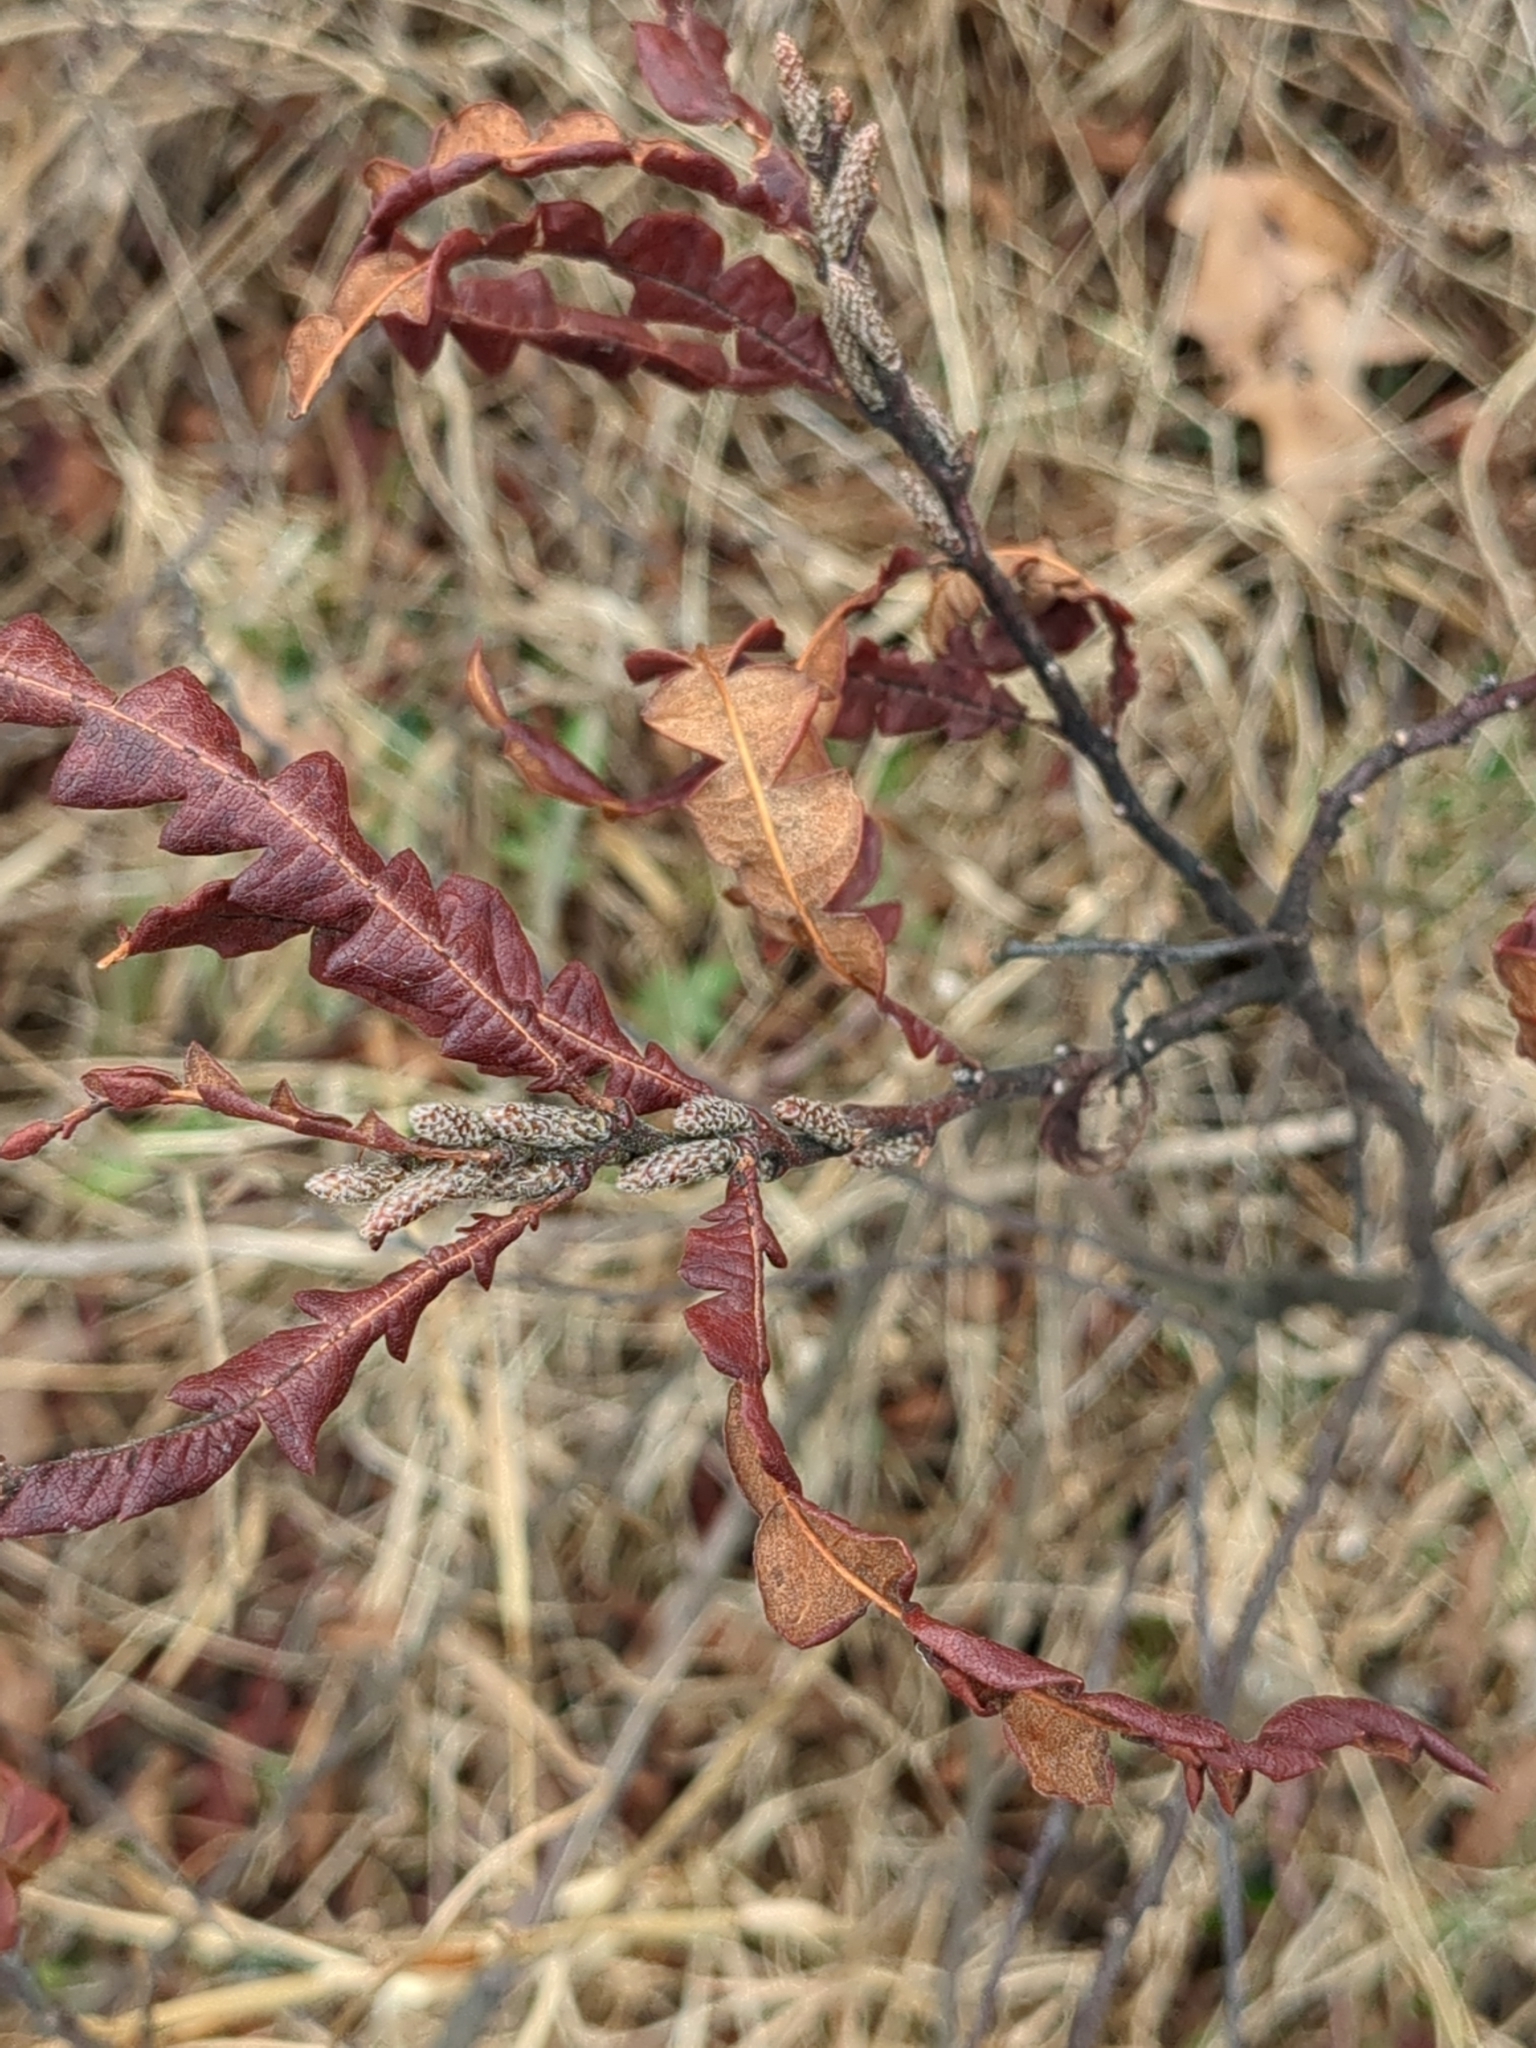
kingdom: Plantae
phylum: Tracheophyta
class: Magnoliopsida
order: Fagales
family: Myricaceae
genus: Comptonia
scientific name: Comptonia peregrina
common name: Sweet-fern
